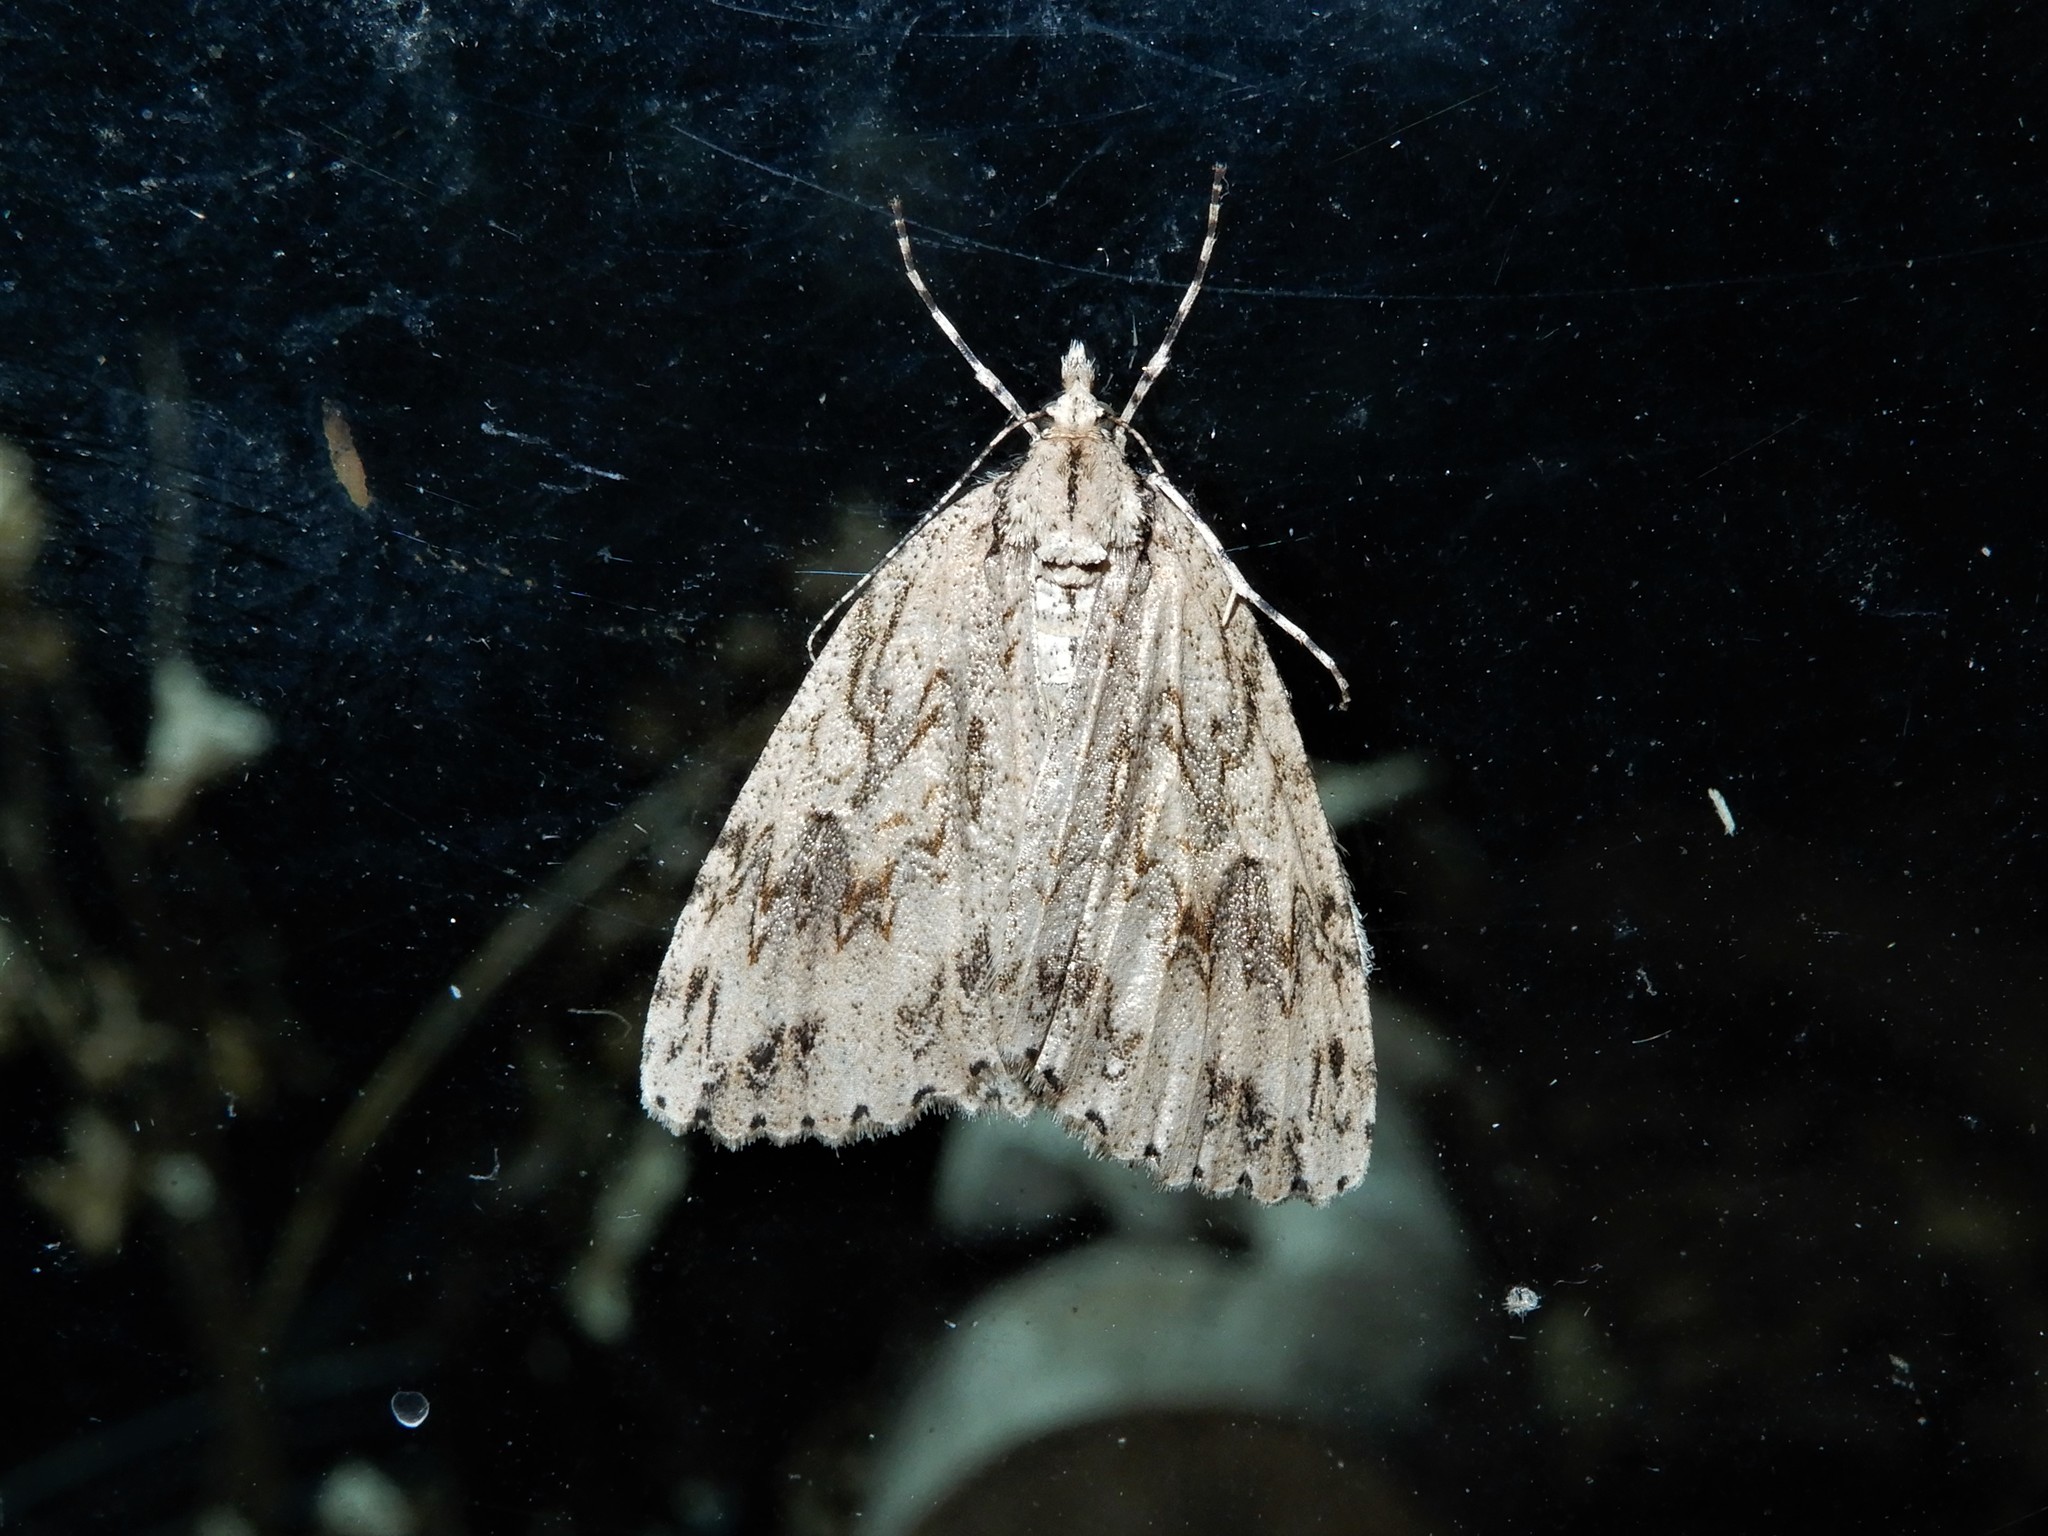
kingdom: Animalia
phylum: Arthropoda
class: Insecta
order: Lepidoptera
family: Geometridae
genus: Pseudocoremia
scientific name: Pseudocoremia rudisata
